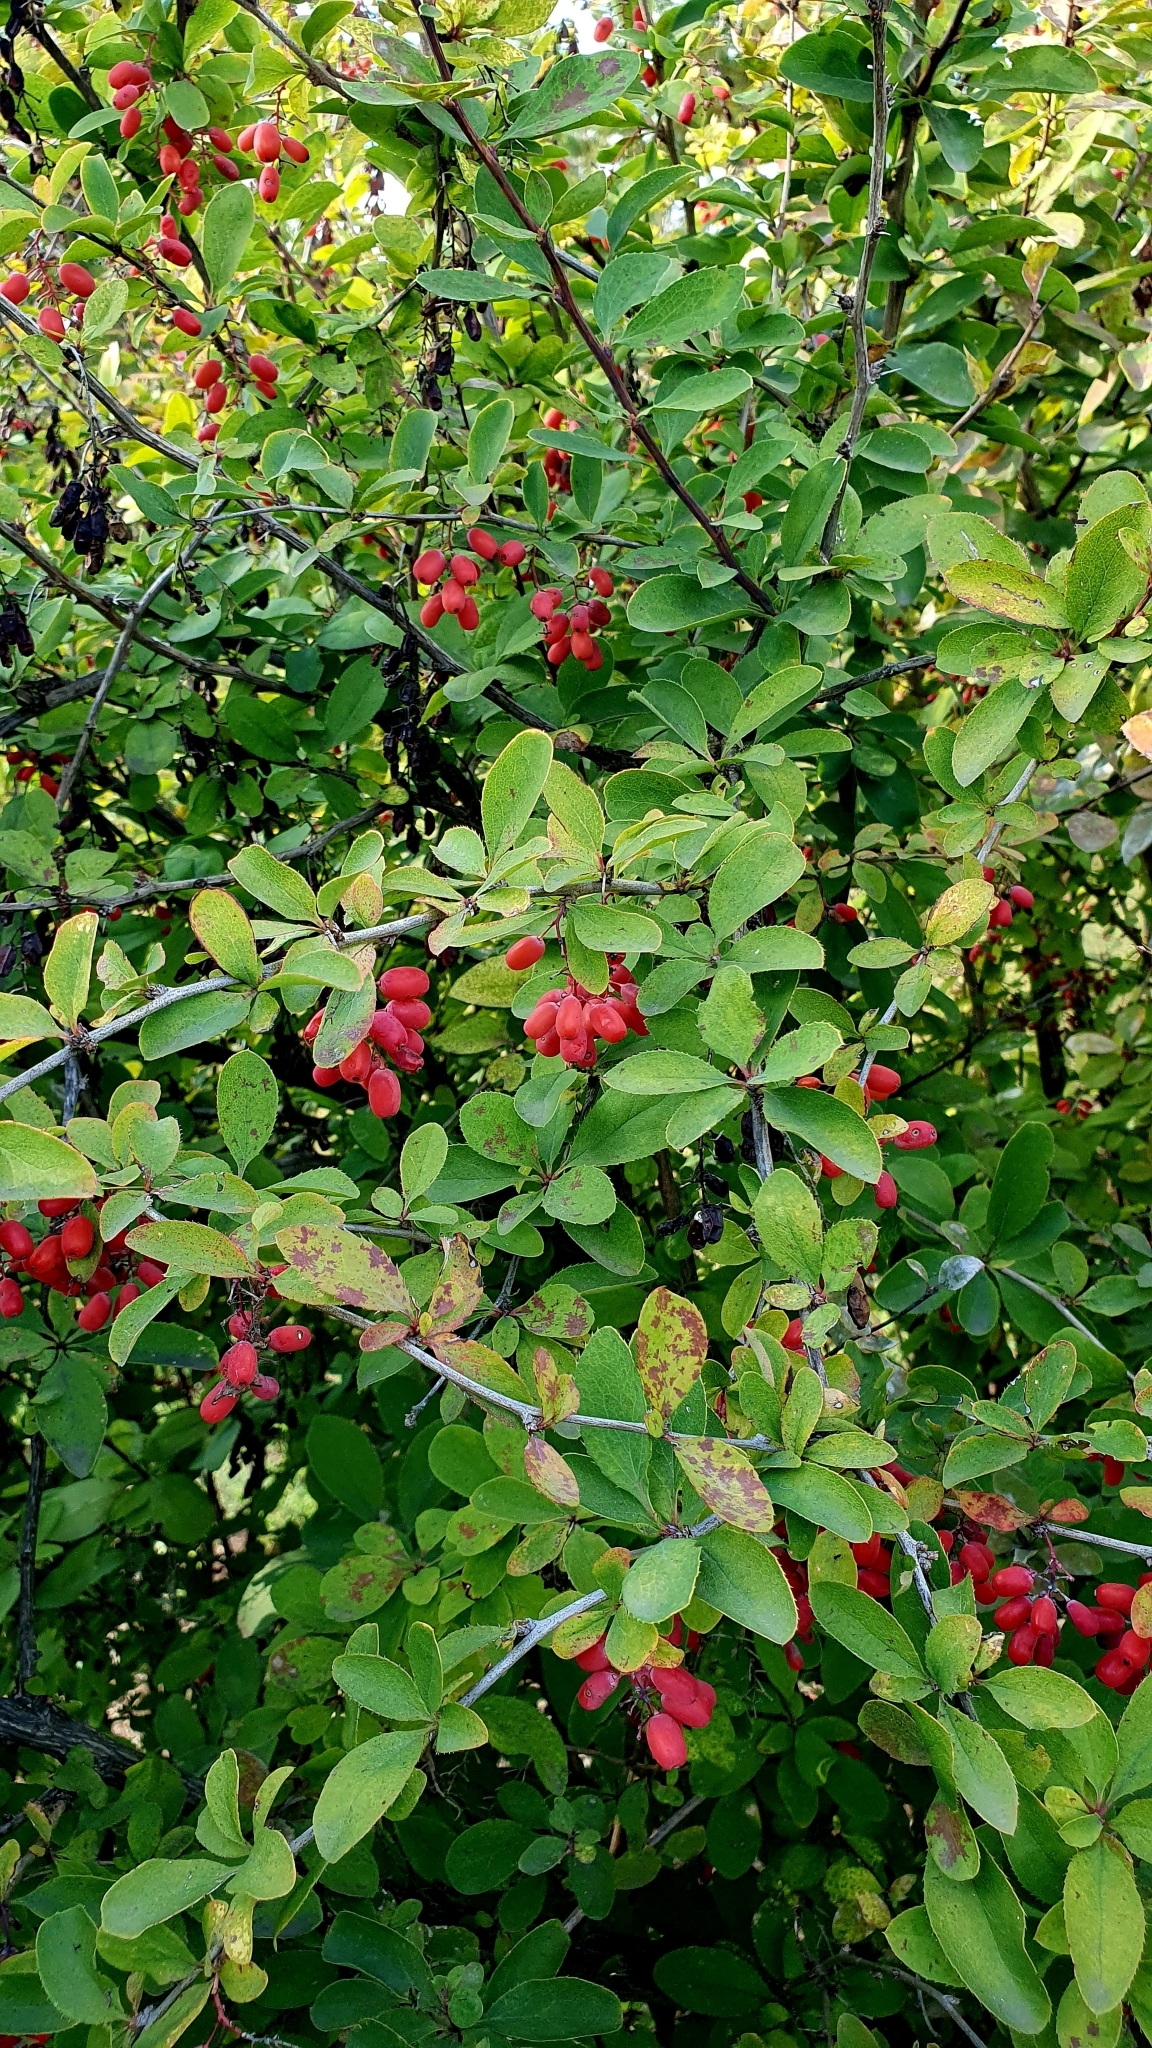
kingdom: Plantae
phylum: Tracheophyta
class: Magnoliopsida
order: Ranunculales
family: Berberidaceae
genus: Berberis
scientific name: Berberis vulgaris
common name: Barberry
